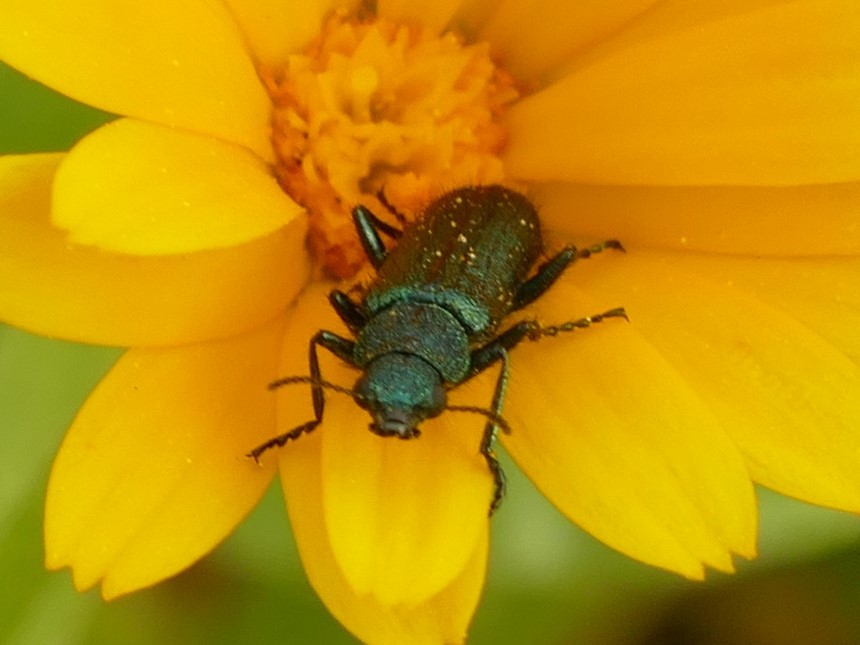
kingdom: Animalia
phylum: Arthropoda
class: Insecta
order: Coleoptera
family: Dasytidae
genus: Psilothrix
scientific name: Psilothrix viridicoerulea
